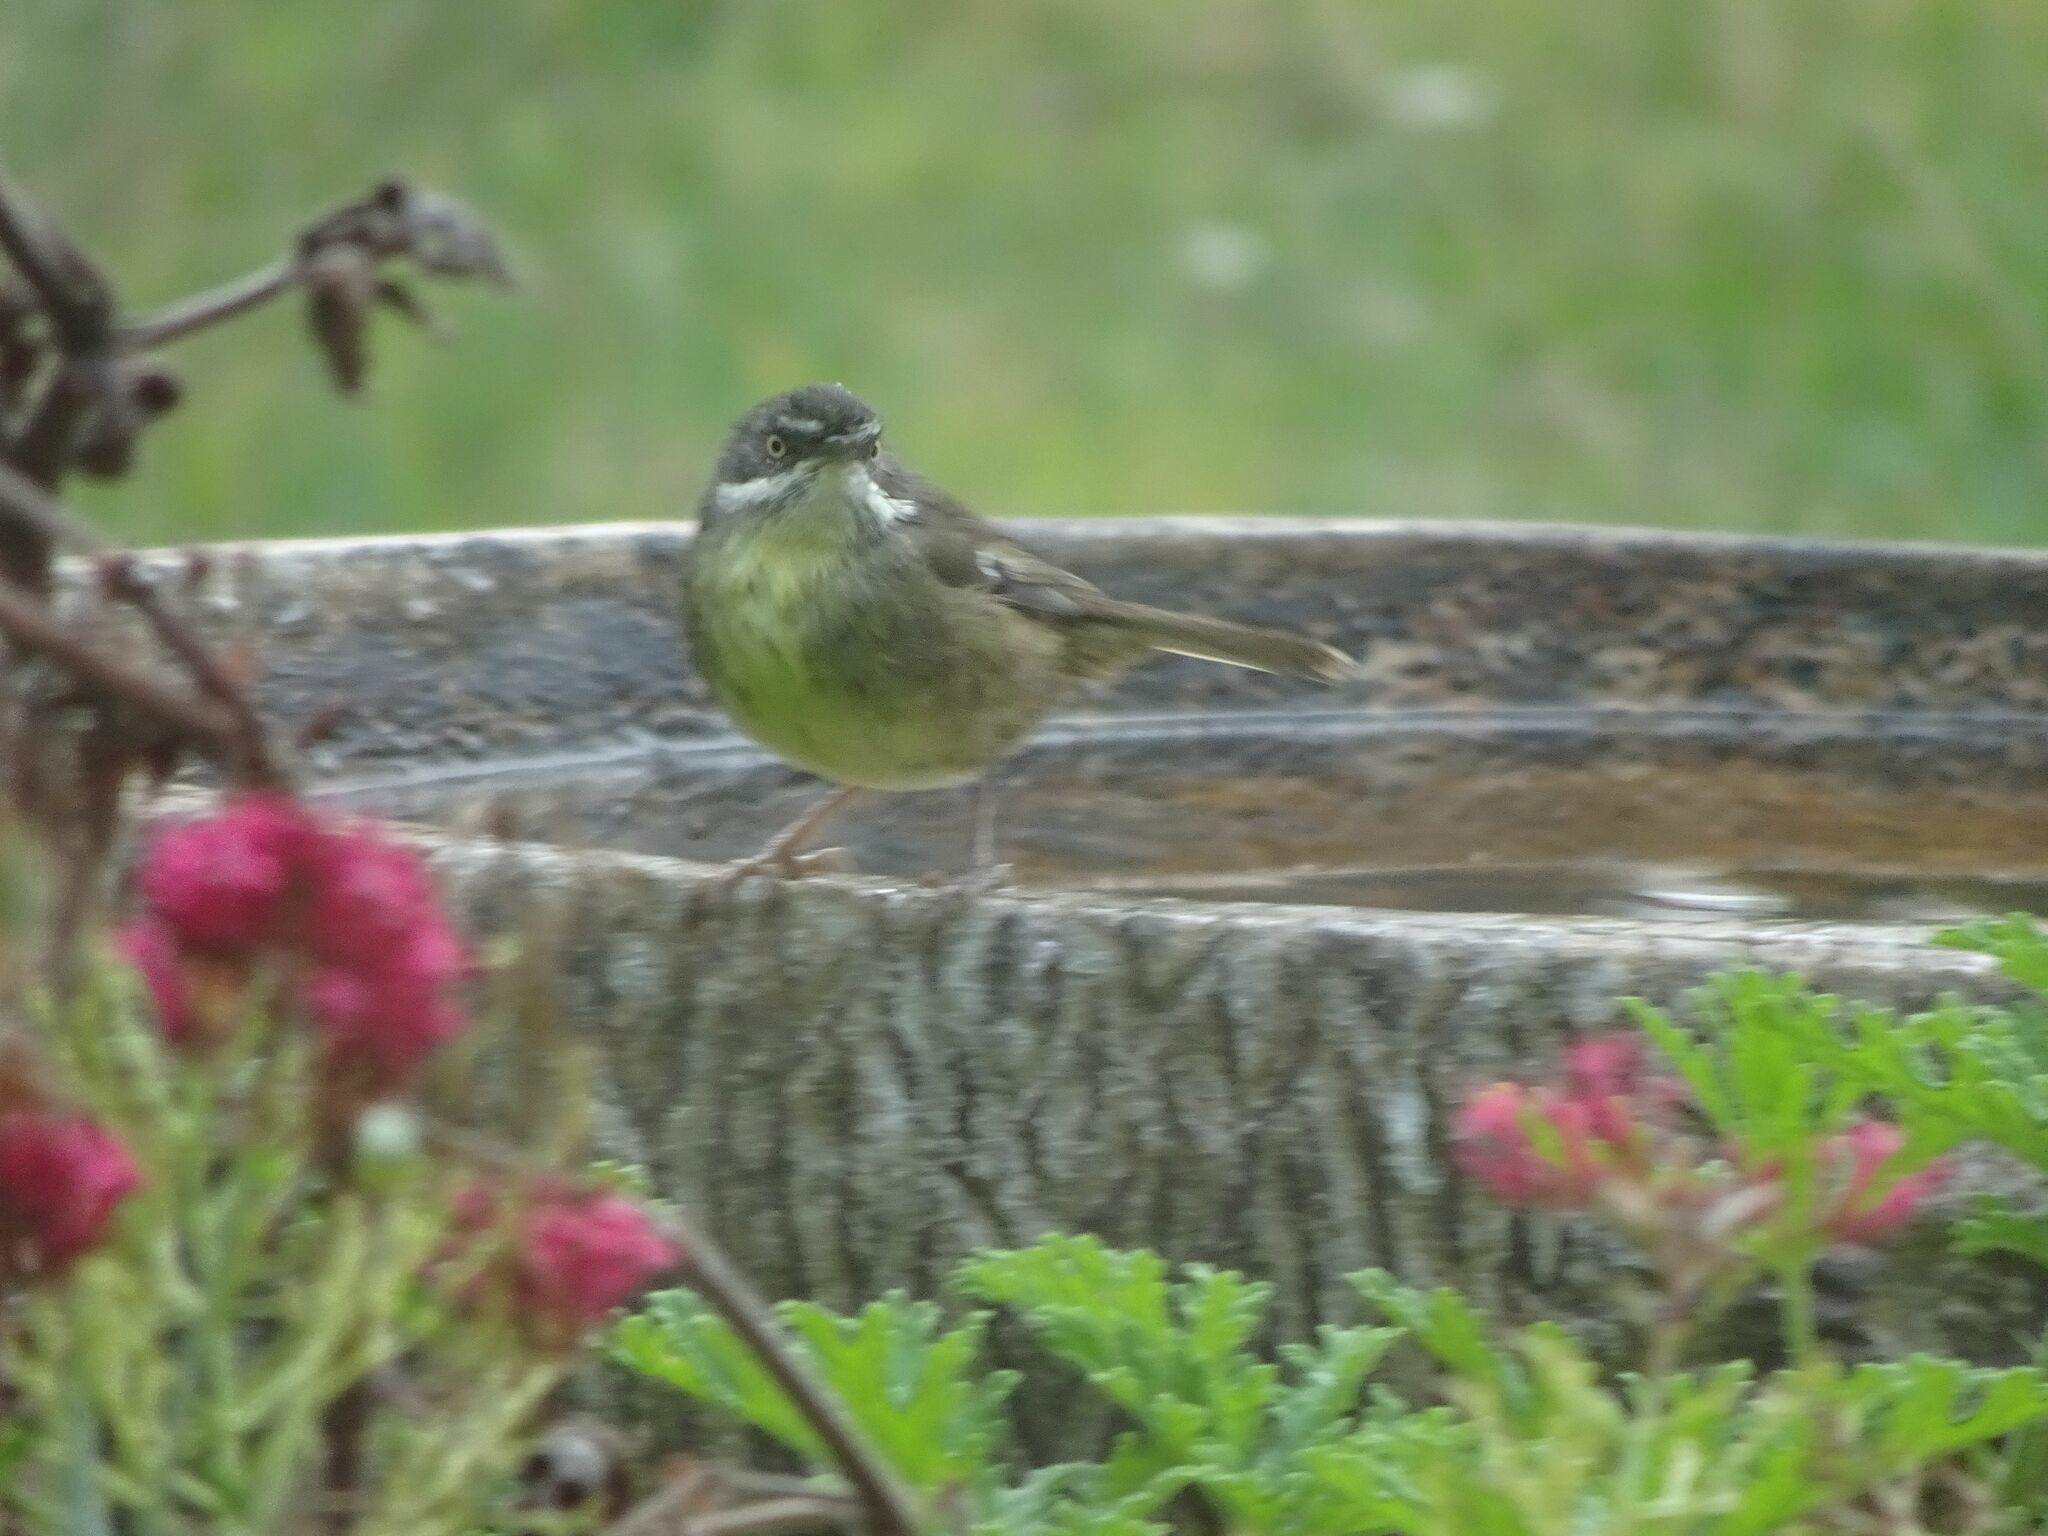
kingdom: Animalia
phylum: Chordata
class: Aves
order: Passeriformes
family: Acanthizidae
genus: Sericornis
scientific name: Sericornis frontalis
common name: White-browed scrubwren
